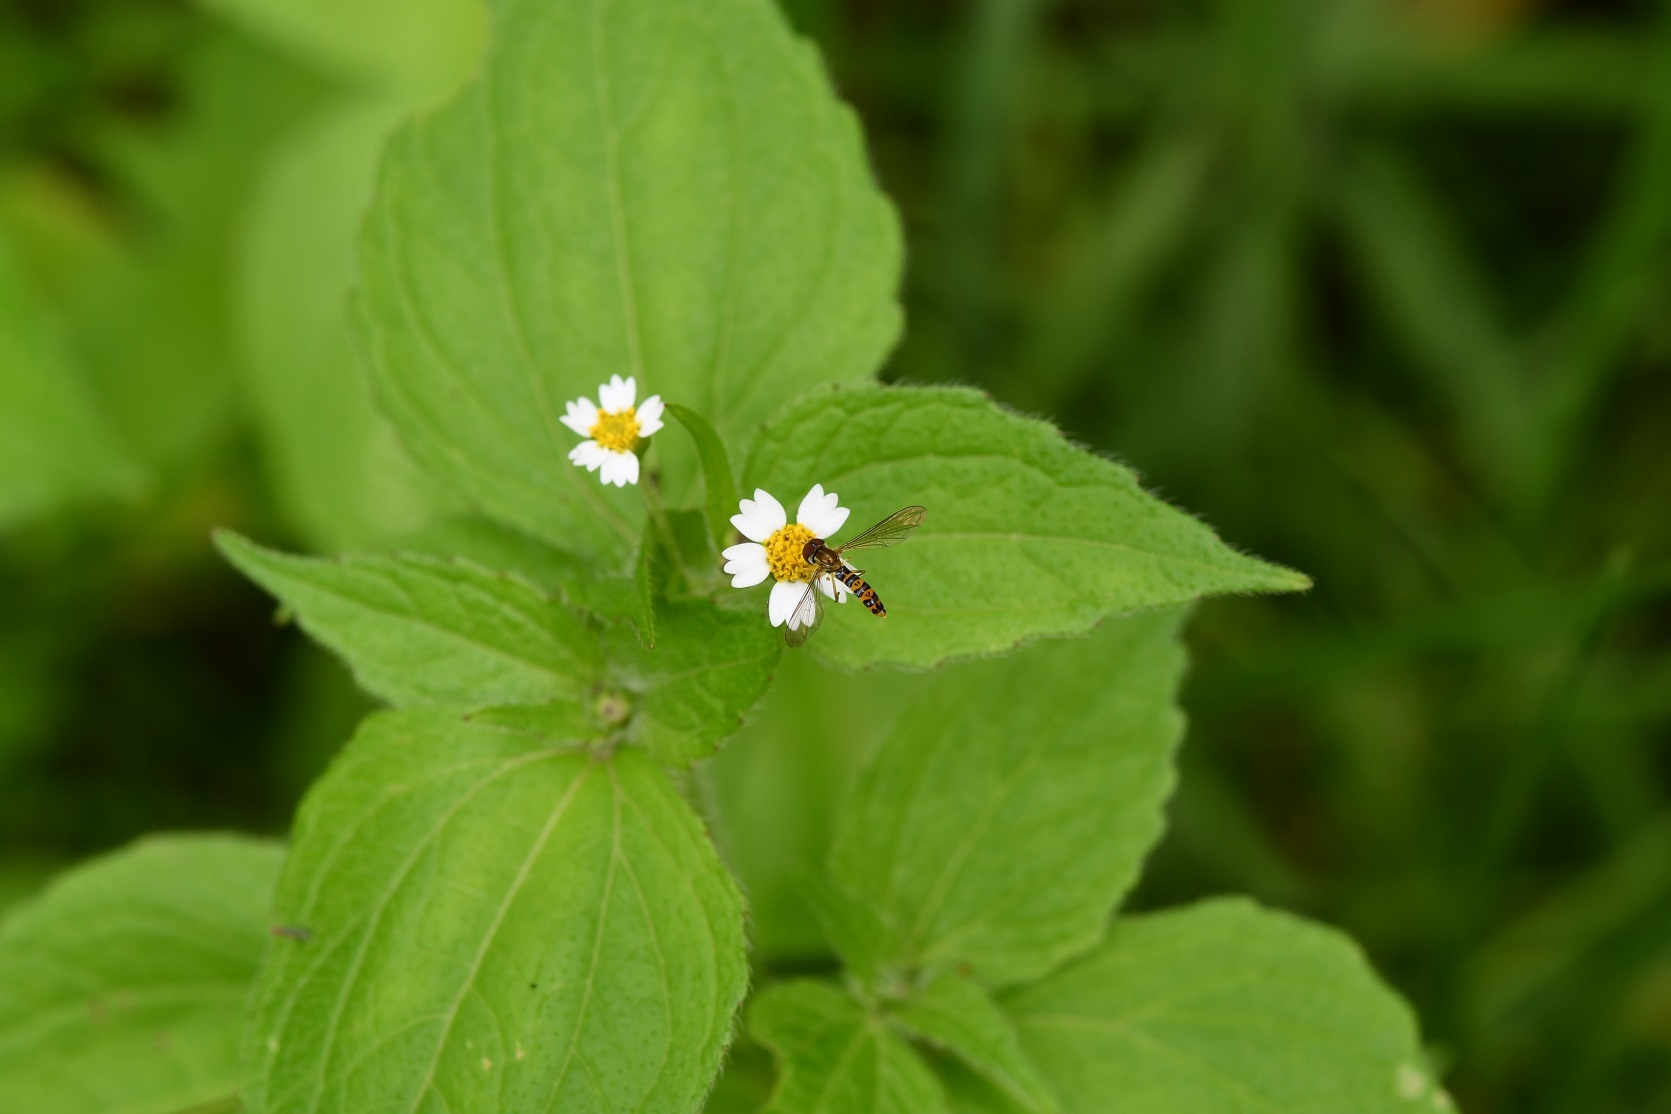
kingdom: Plantae
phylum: Tracheophyta
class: Magnoliopsida
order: Asterales
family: Asteraceae
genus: Galinsoga
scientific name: Galinsoga quadriradiata
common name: Shaggy soldier
